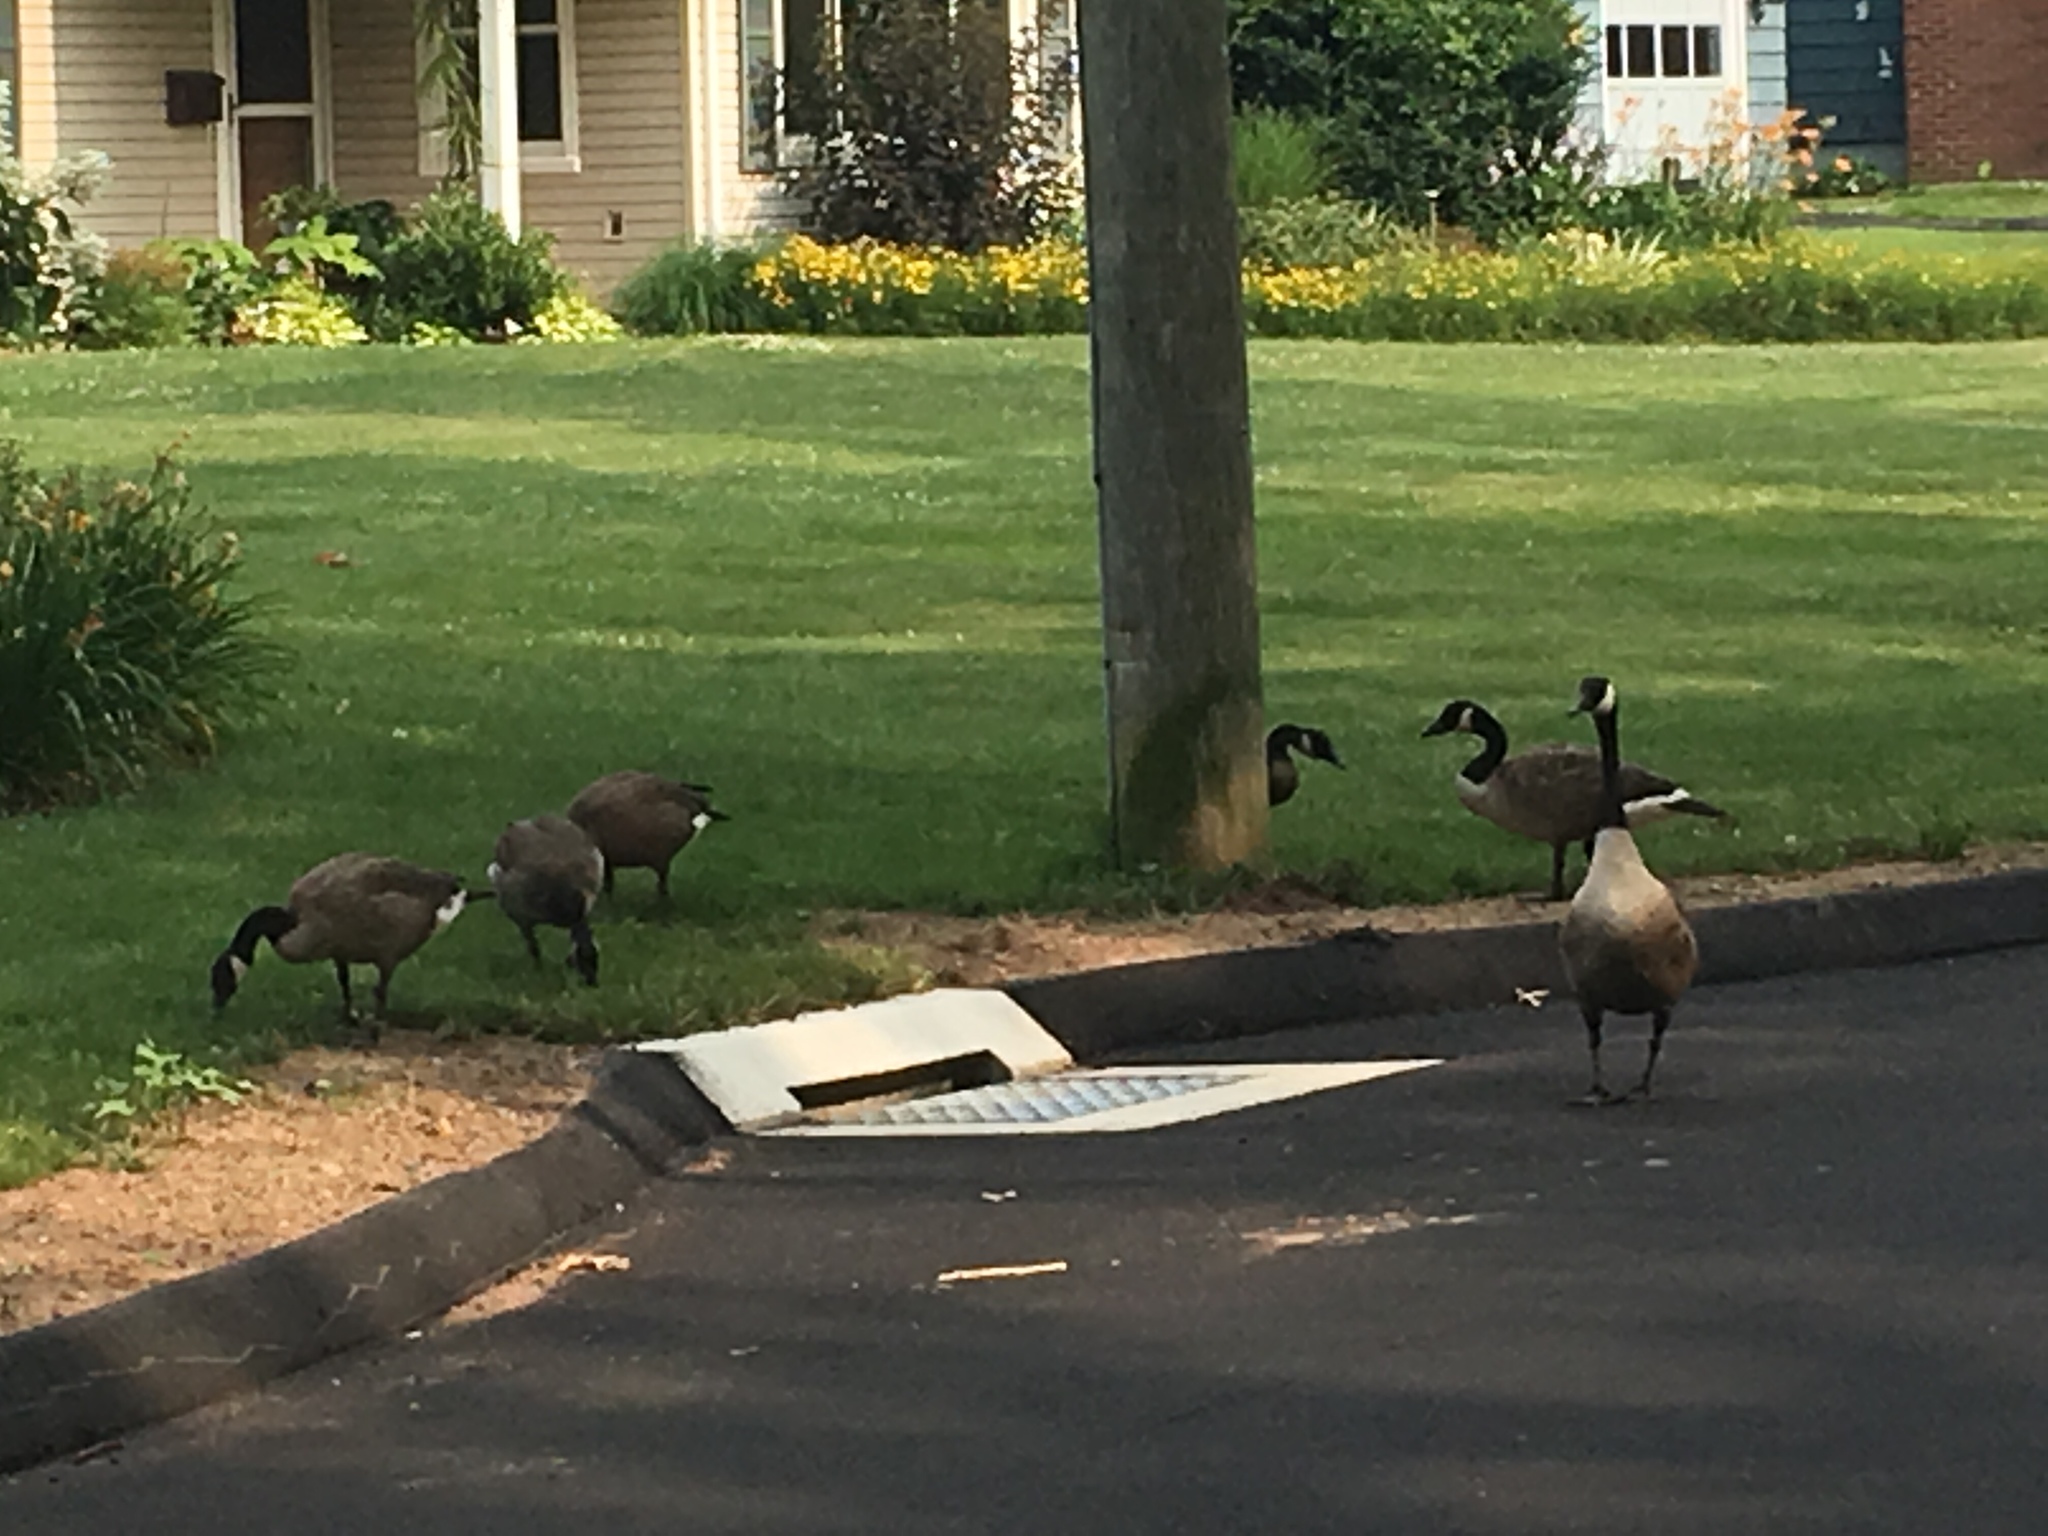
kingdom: Animalia
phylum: Chordata
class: Aves
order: Anseriformes
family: Anatidae
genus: Branta
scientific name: Branta canadensis
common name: Canada goose
